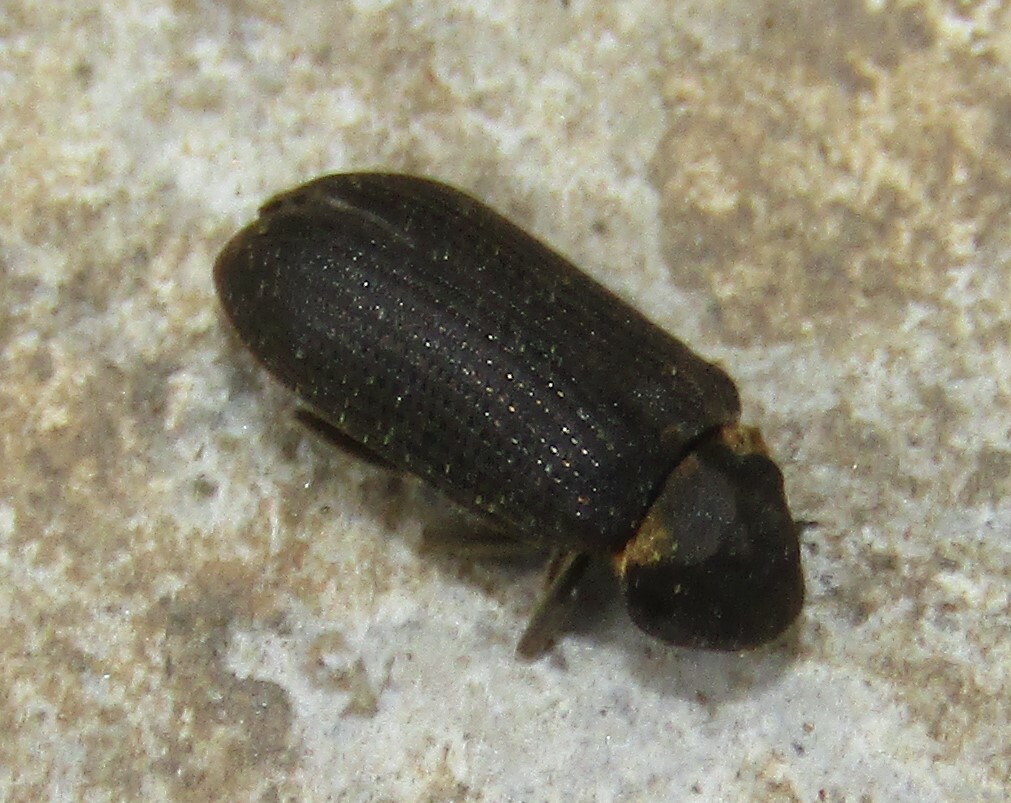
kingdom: Animalia
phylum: Arthropoda
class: Insecta
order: Coleoptera
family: Anobiidae
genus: Hadrobregmus
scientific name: Hadrobregmus pertinax
